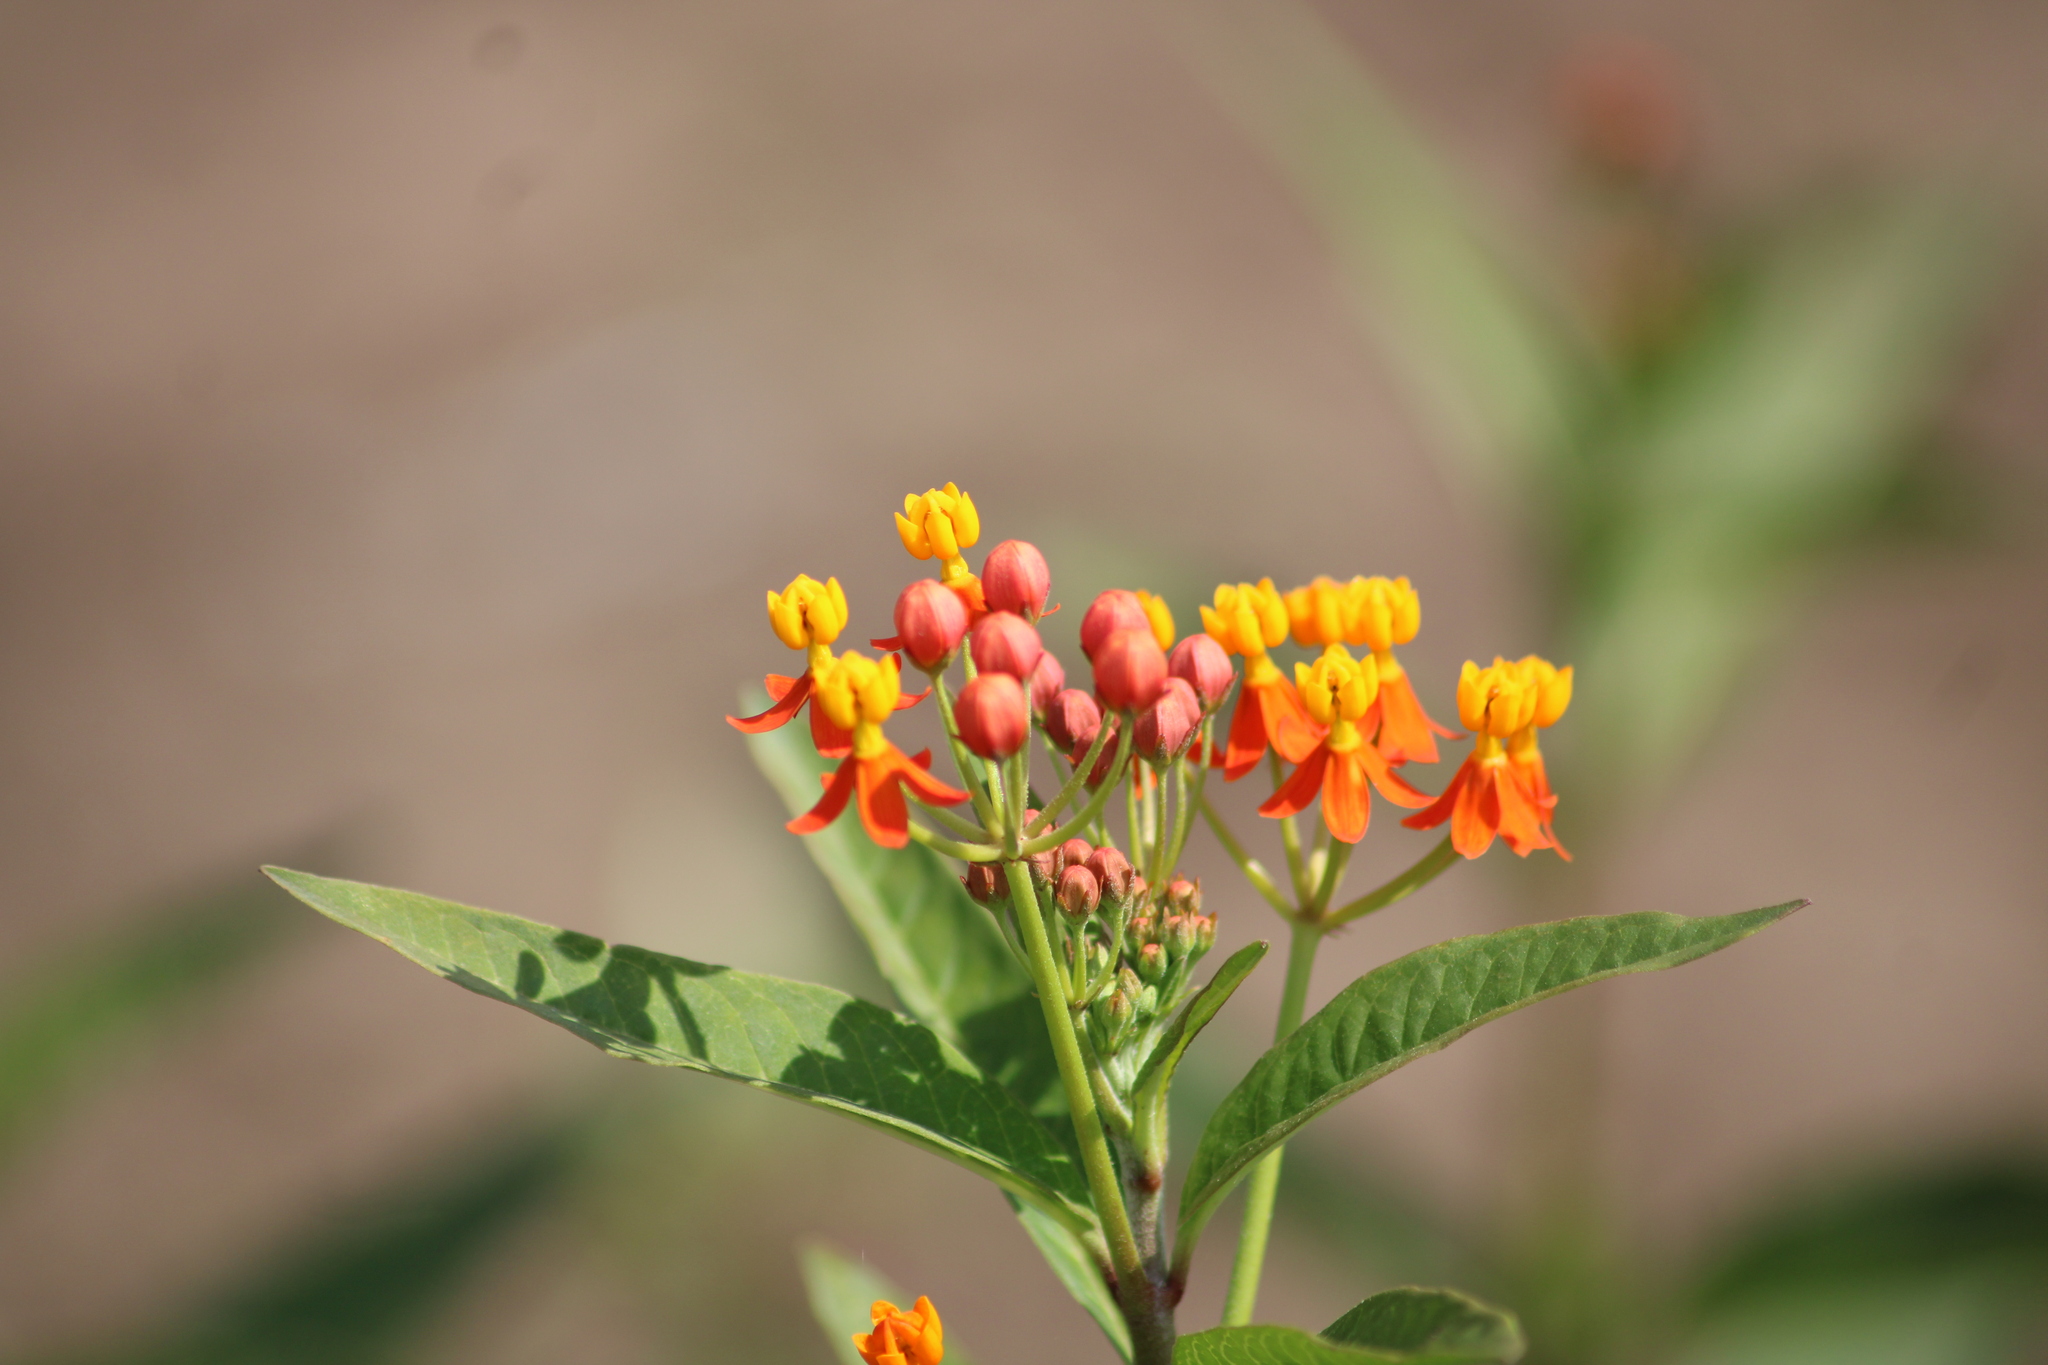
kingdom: Plantae
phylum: Tracheophyta
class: Magnoliopsida
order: Gentianales
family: Apocynaceae
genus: Asclepias
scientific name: Asclepias curassavica
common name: Bloodflower
